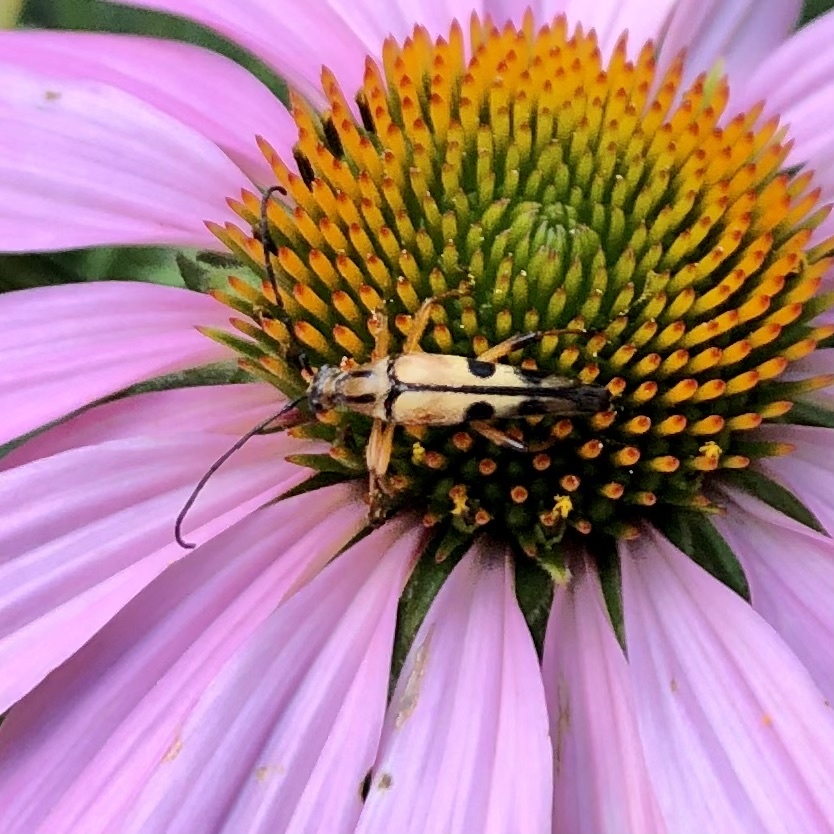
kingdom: Animalia
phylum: Arthropoda
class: Insecta
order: Coleoptera
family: Cerambycidae
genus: Strangalia
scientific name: Strangalia famelica
